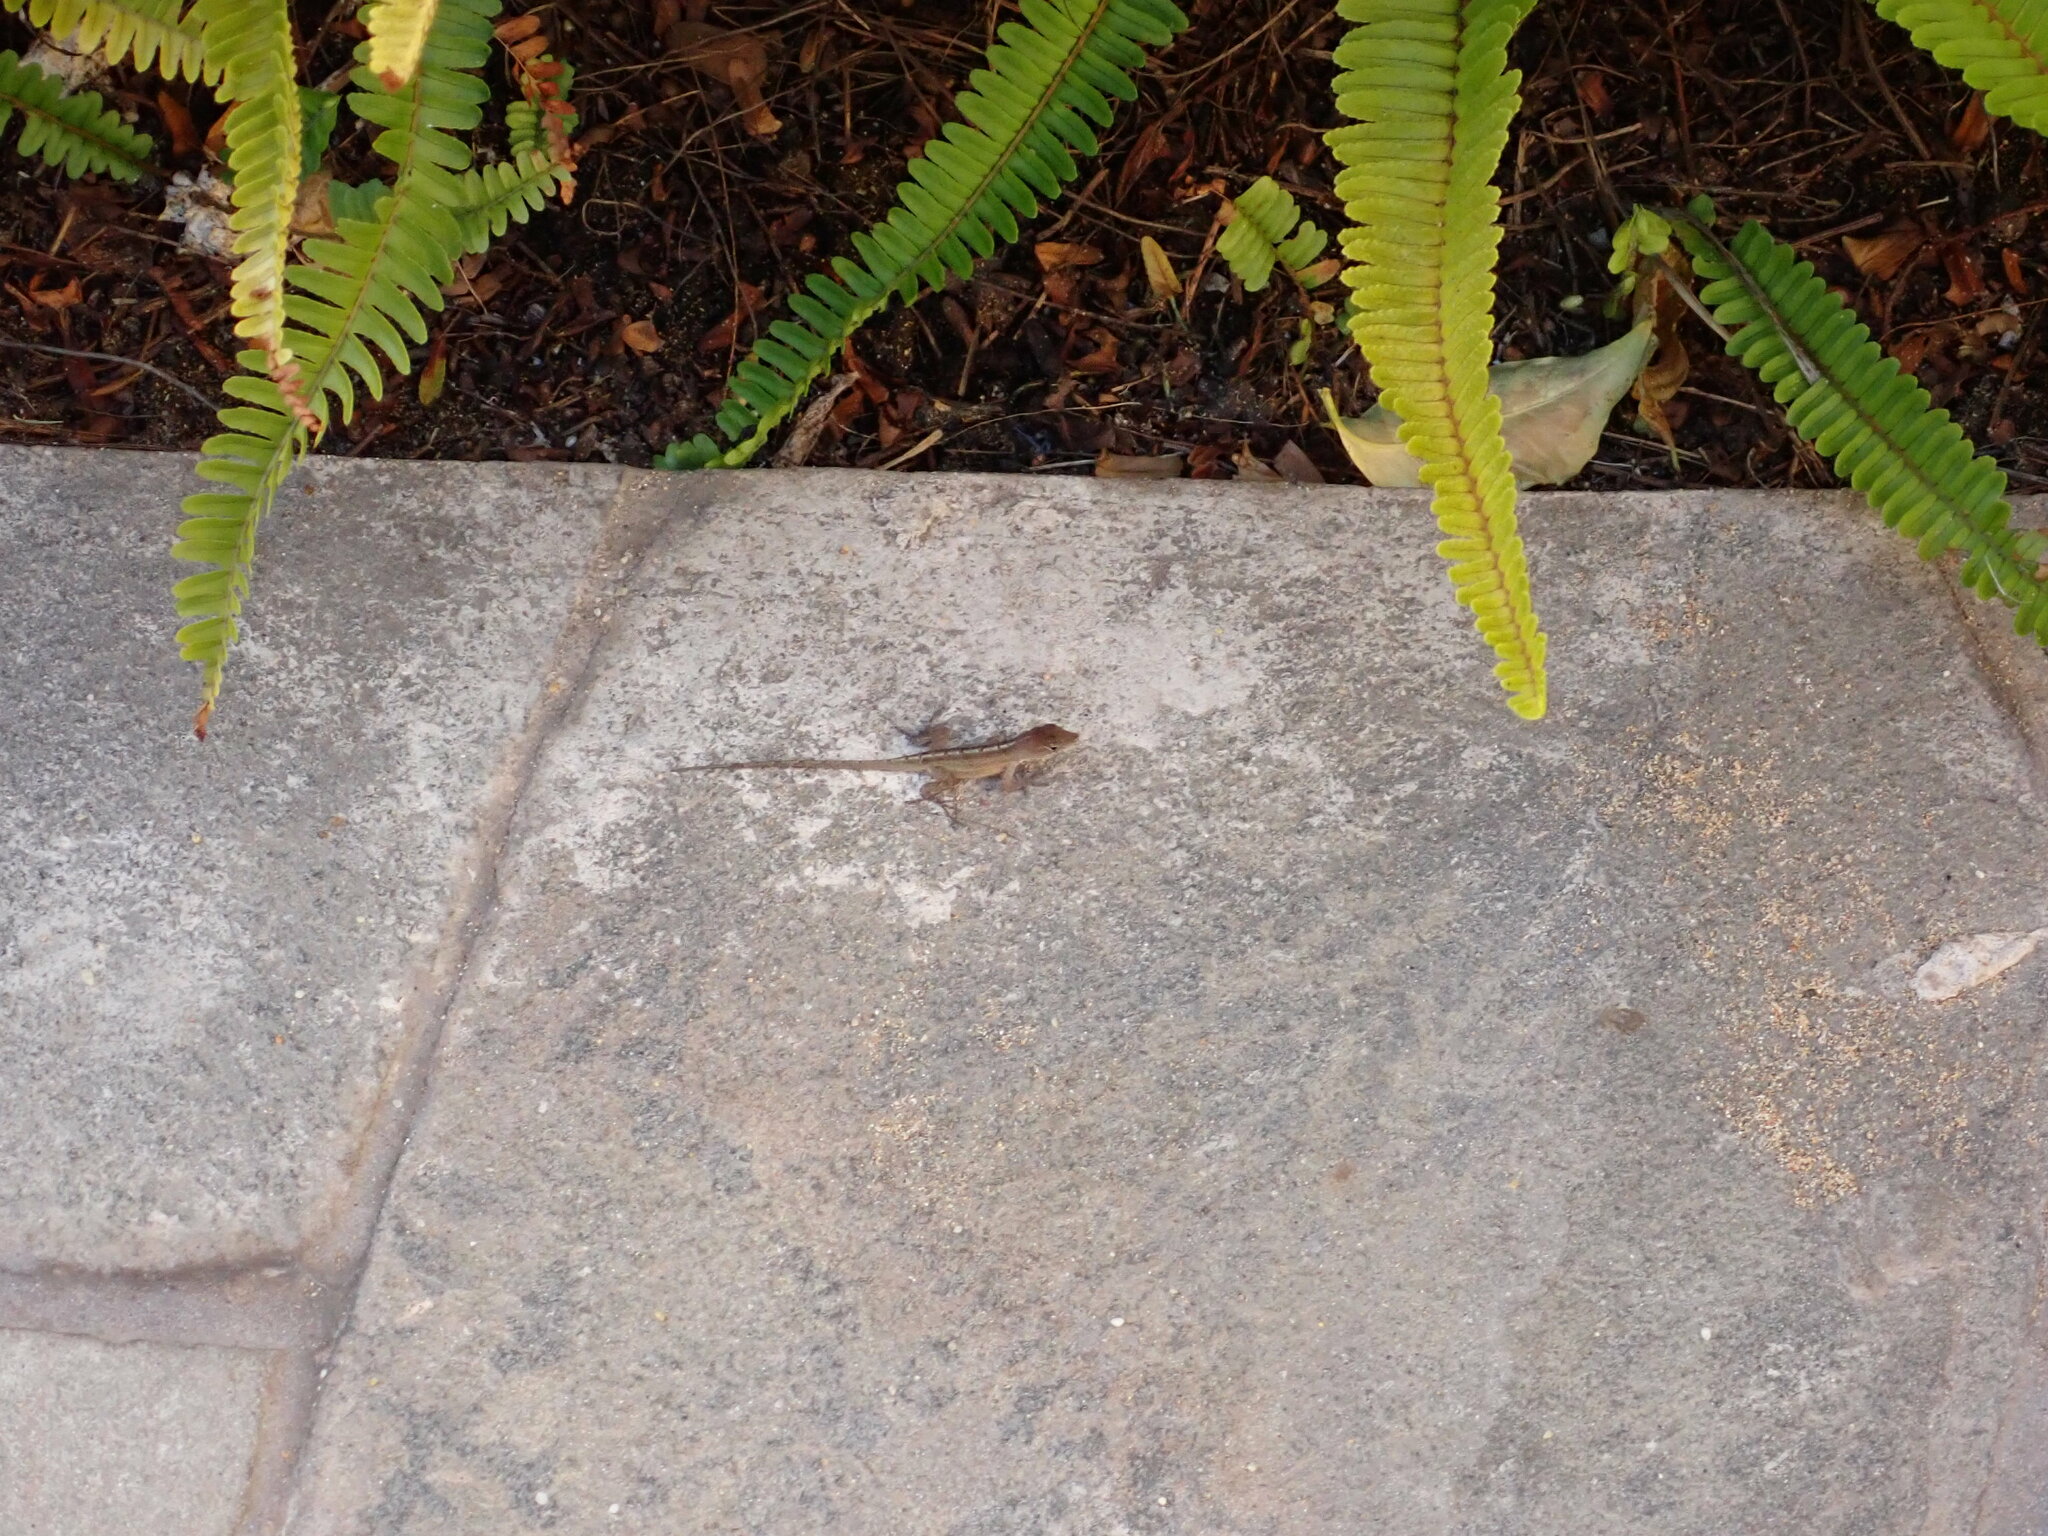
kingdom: Animalia
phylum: Chordata
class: Squamata
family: Dactyloidae
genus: Anolis
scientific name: Anolis sagrei
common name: Brown anole
